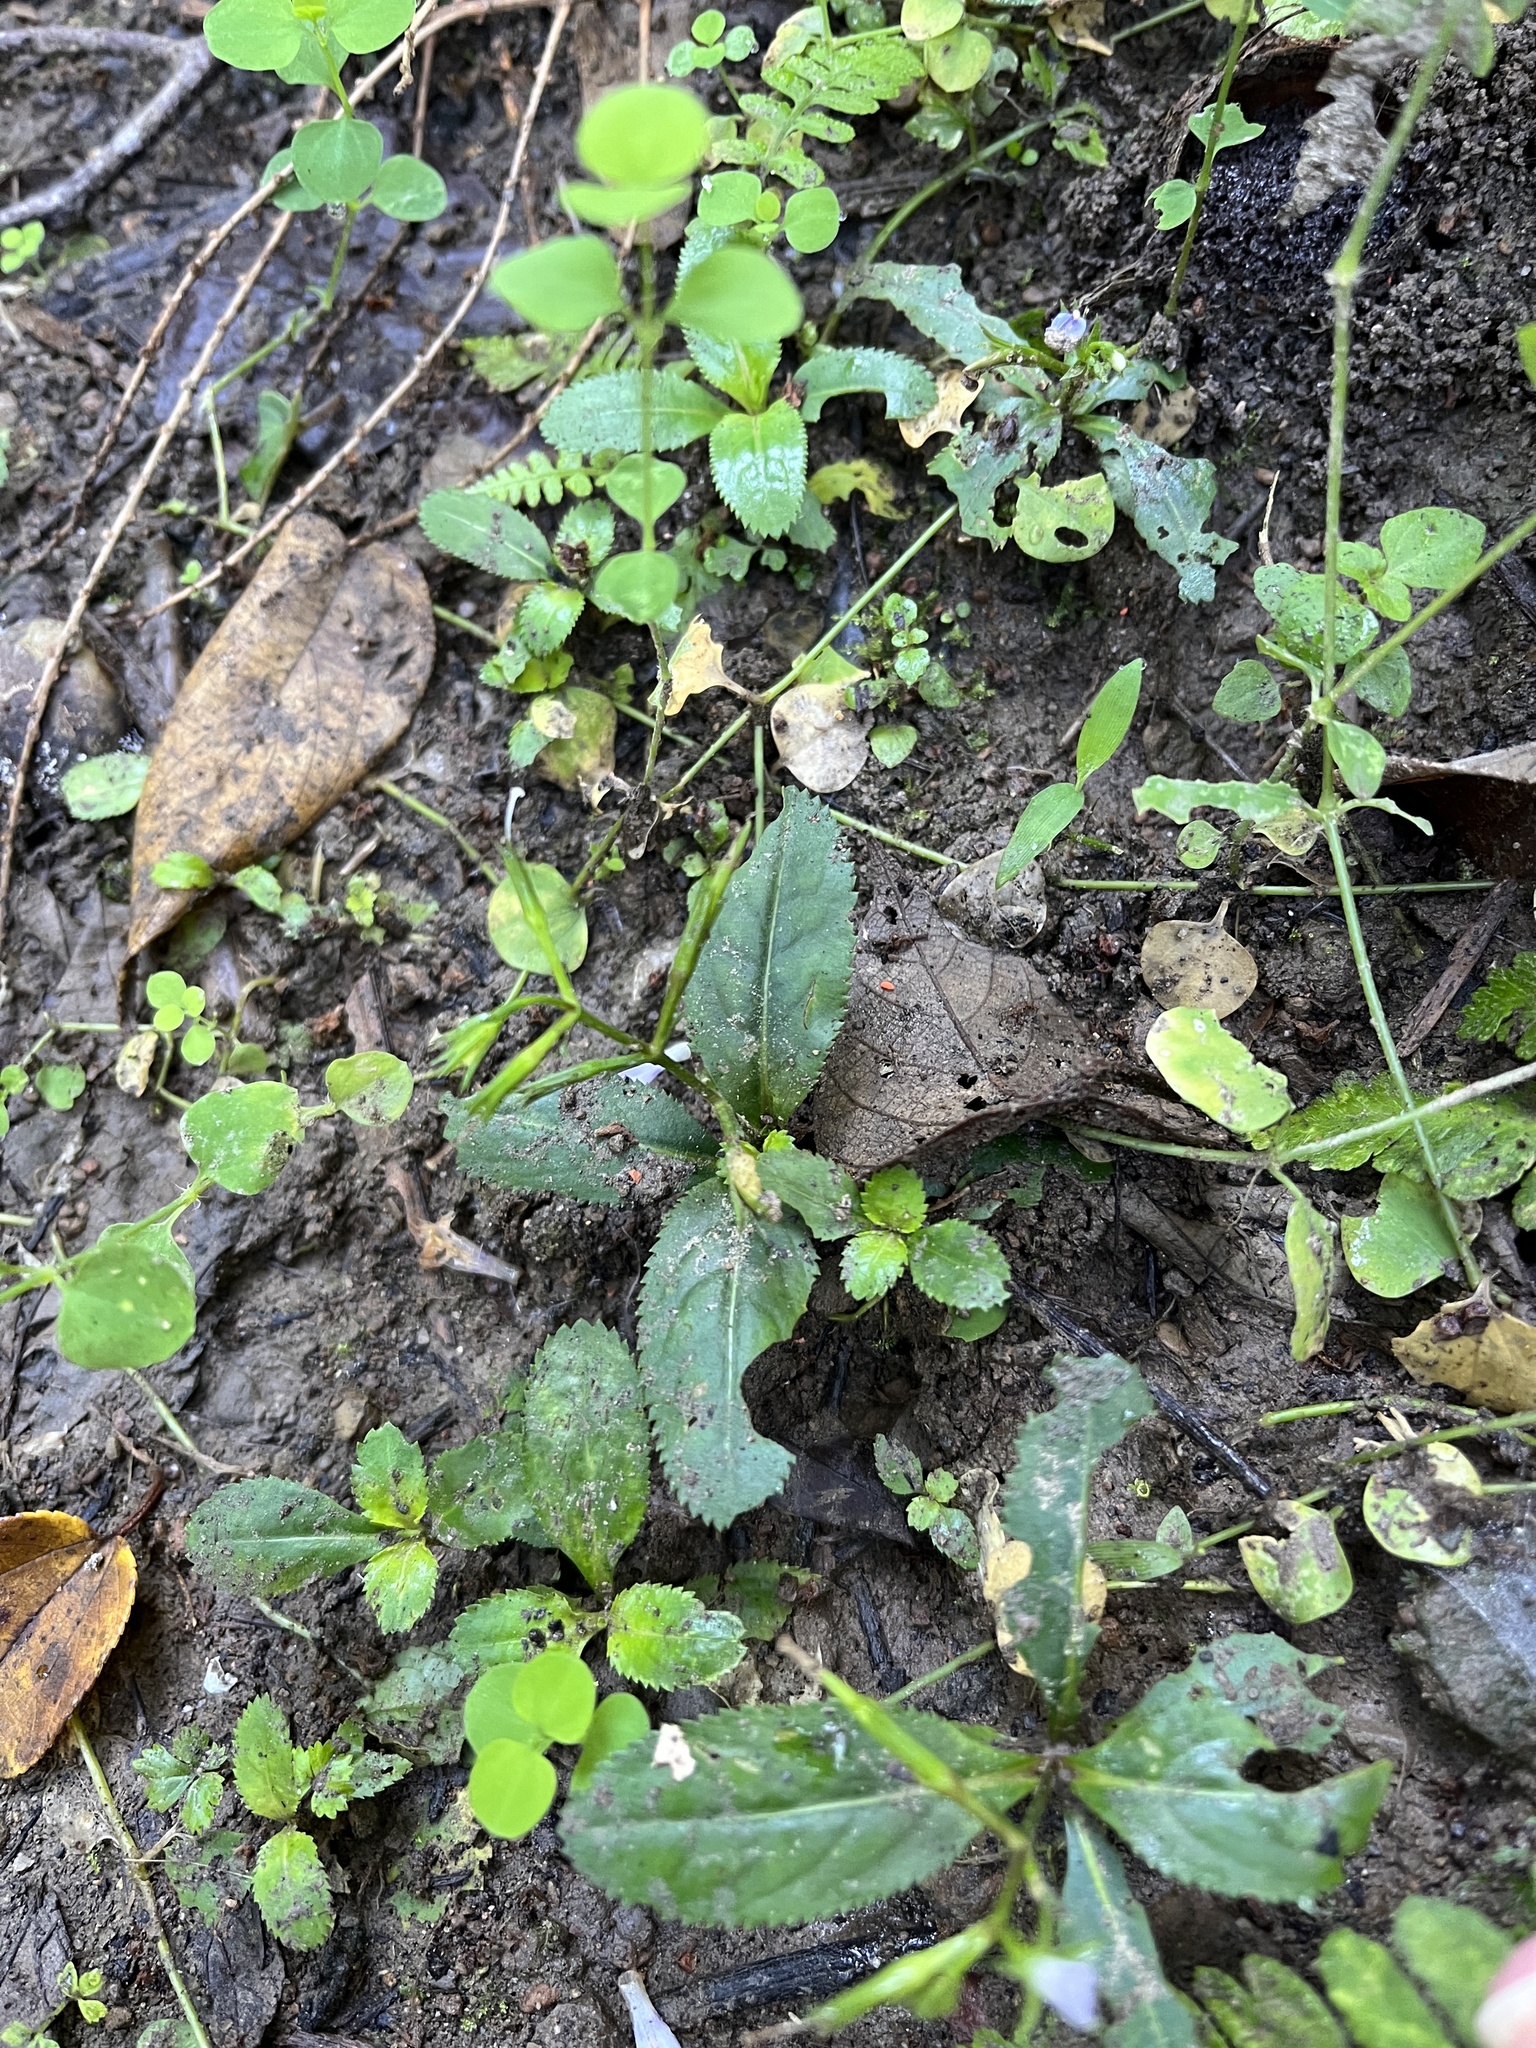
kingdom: Plantae
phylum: Tracheophyta
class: Magnoliopsida
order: Lamiales
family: Linderniaceae
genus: Bonnaya
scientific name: Bonnaya ruelloides
